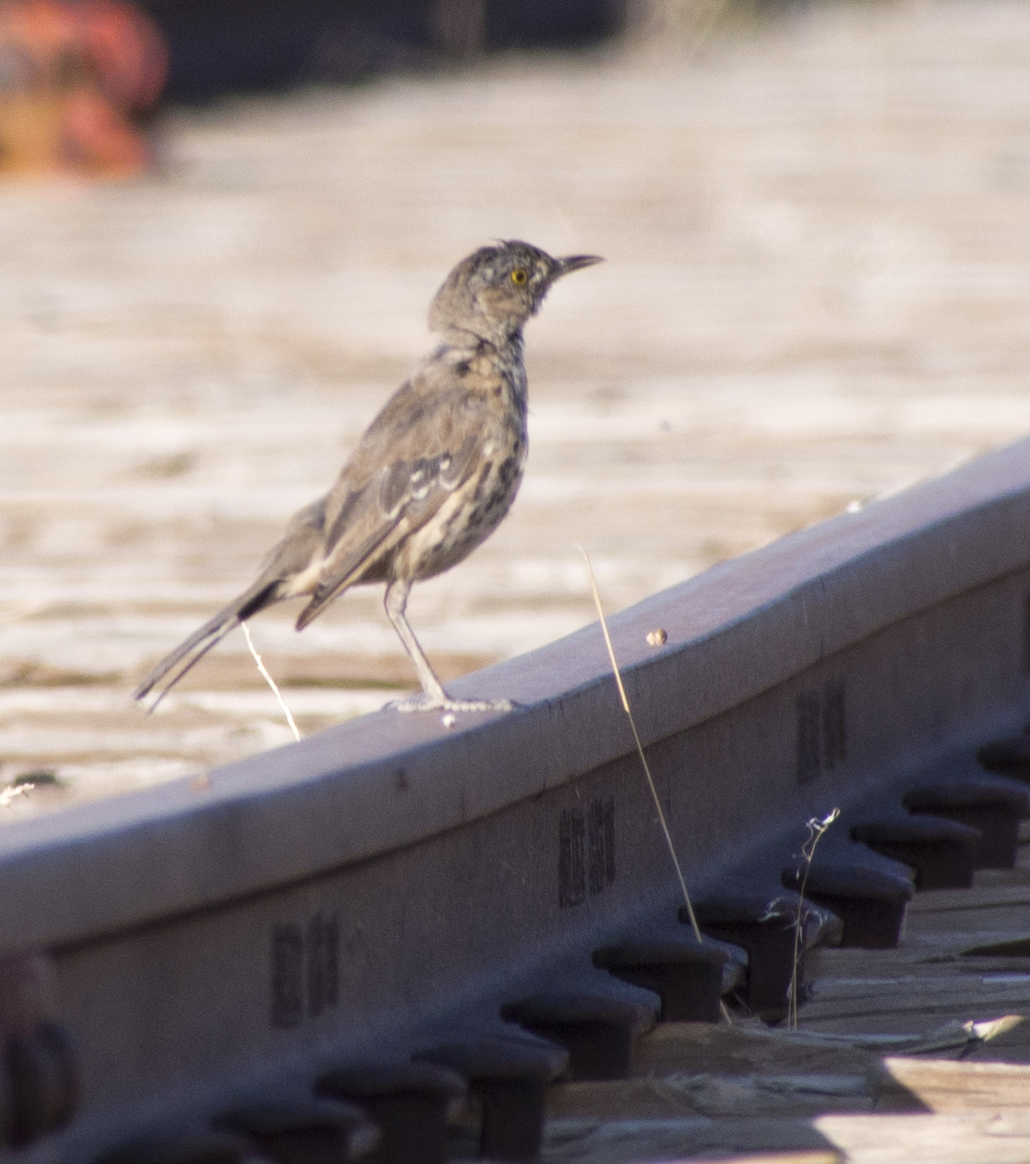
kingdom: Animalia
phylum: Chordata
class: Aves
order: Passeriformes
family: Mimidae
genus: Oreoscoptes
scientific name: Oreoscoptes montanus
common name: Sage thrasher
